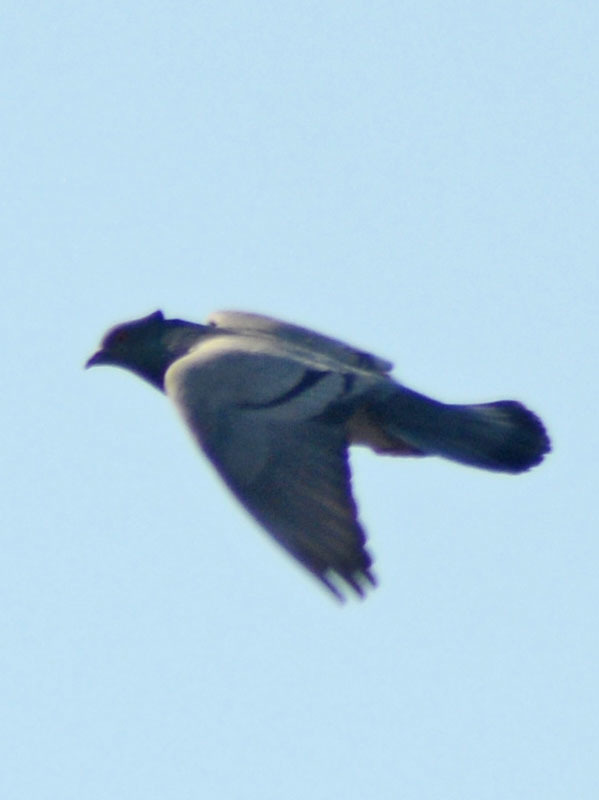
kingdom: Animalia
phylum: Chordata
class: Aves
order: Columbiformes
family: Columbidae
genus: Columba
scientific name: Columba livia
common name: Rock pigeon
